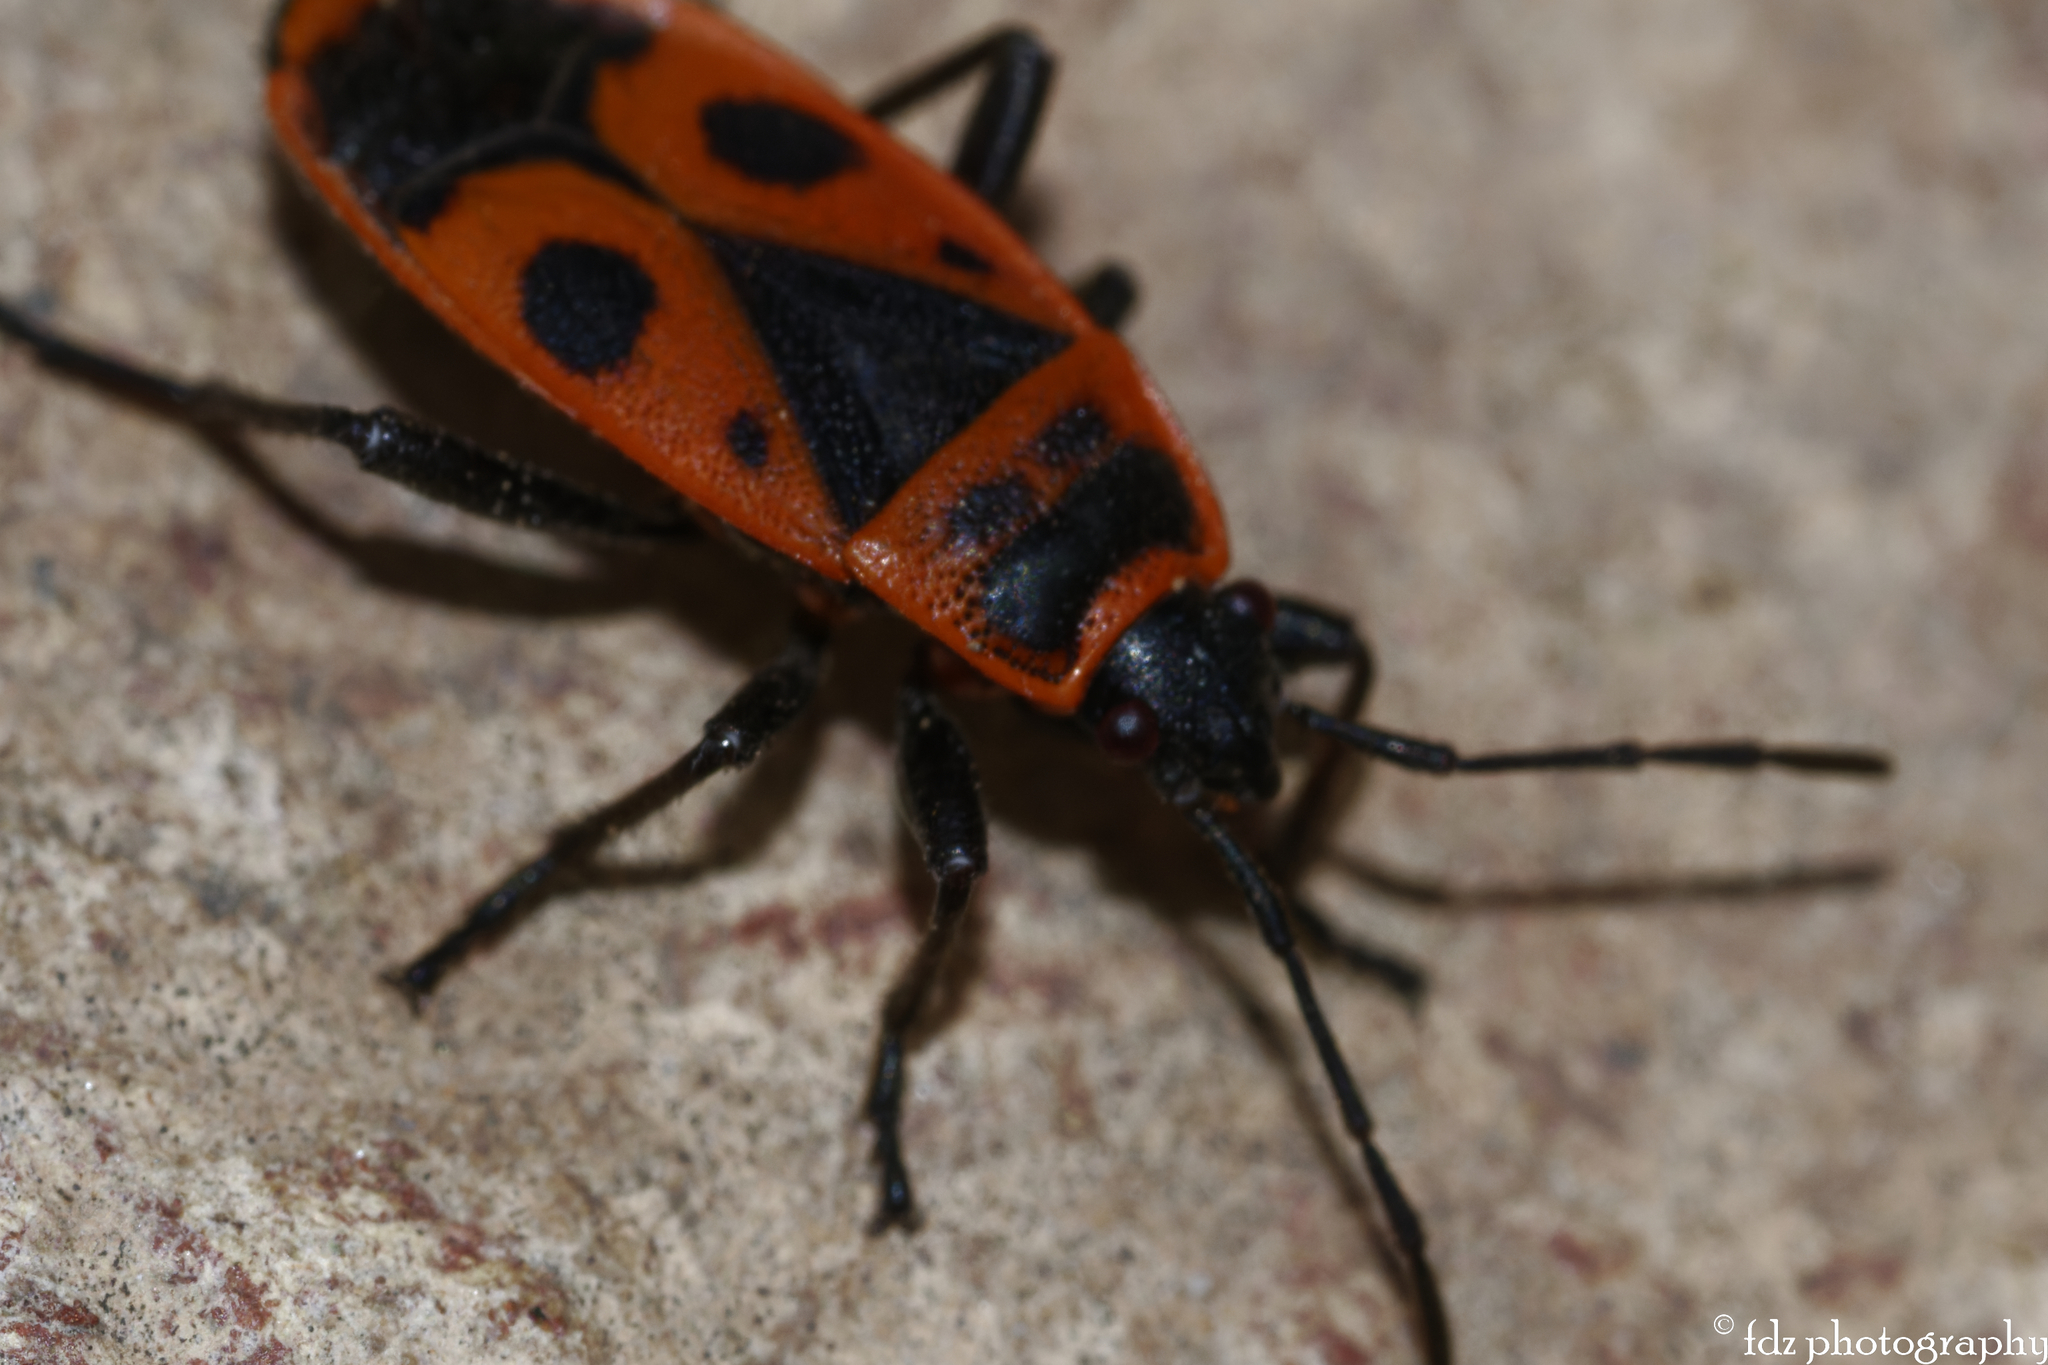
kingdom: Animalia
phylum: Arthropoda
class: Insecta
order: Hemiptera
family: Pyrrhocoridae
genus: Pyrrhocoris
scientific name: Pyrrhocoris apterus
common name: Firebug
